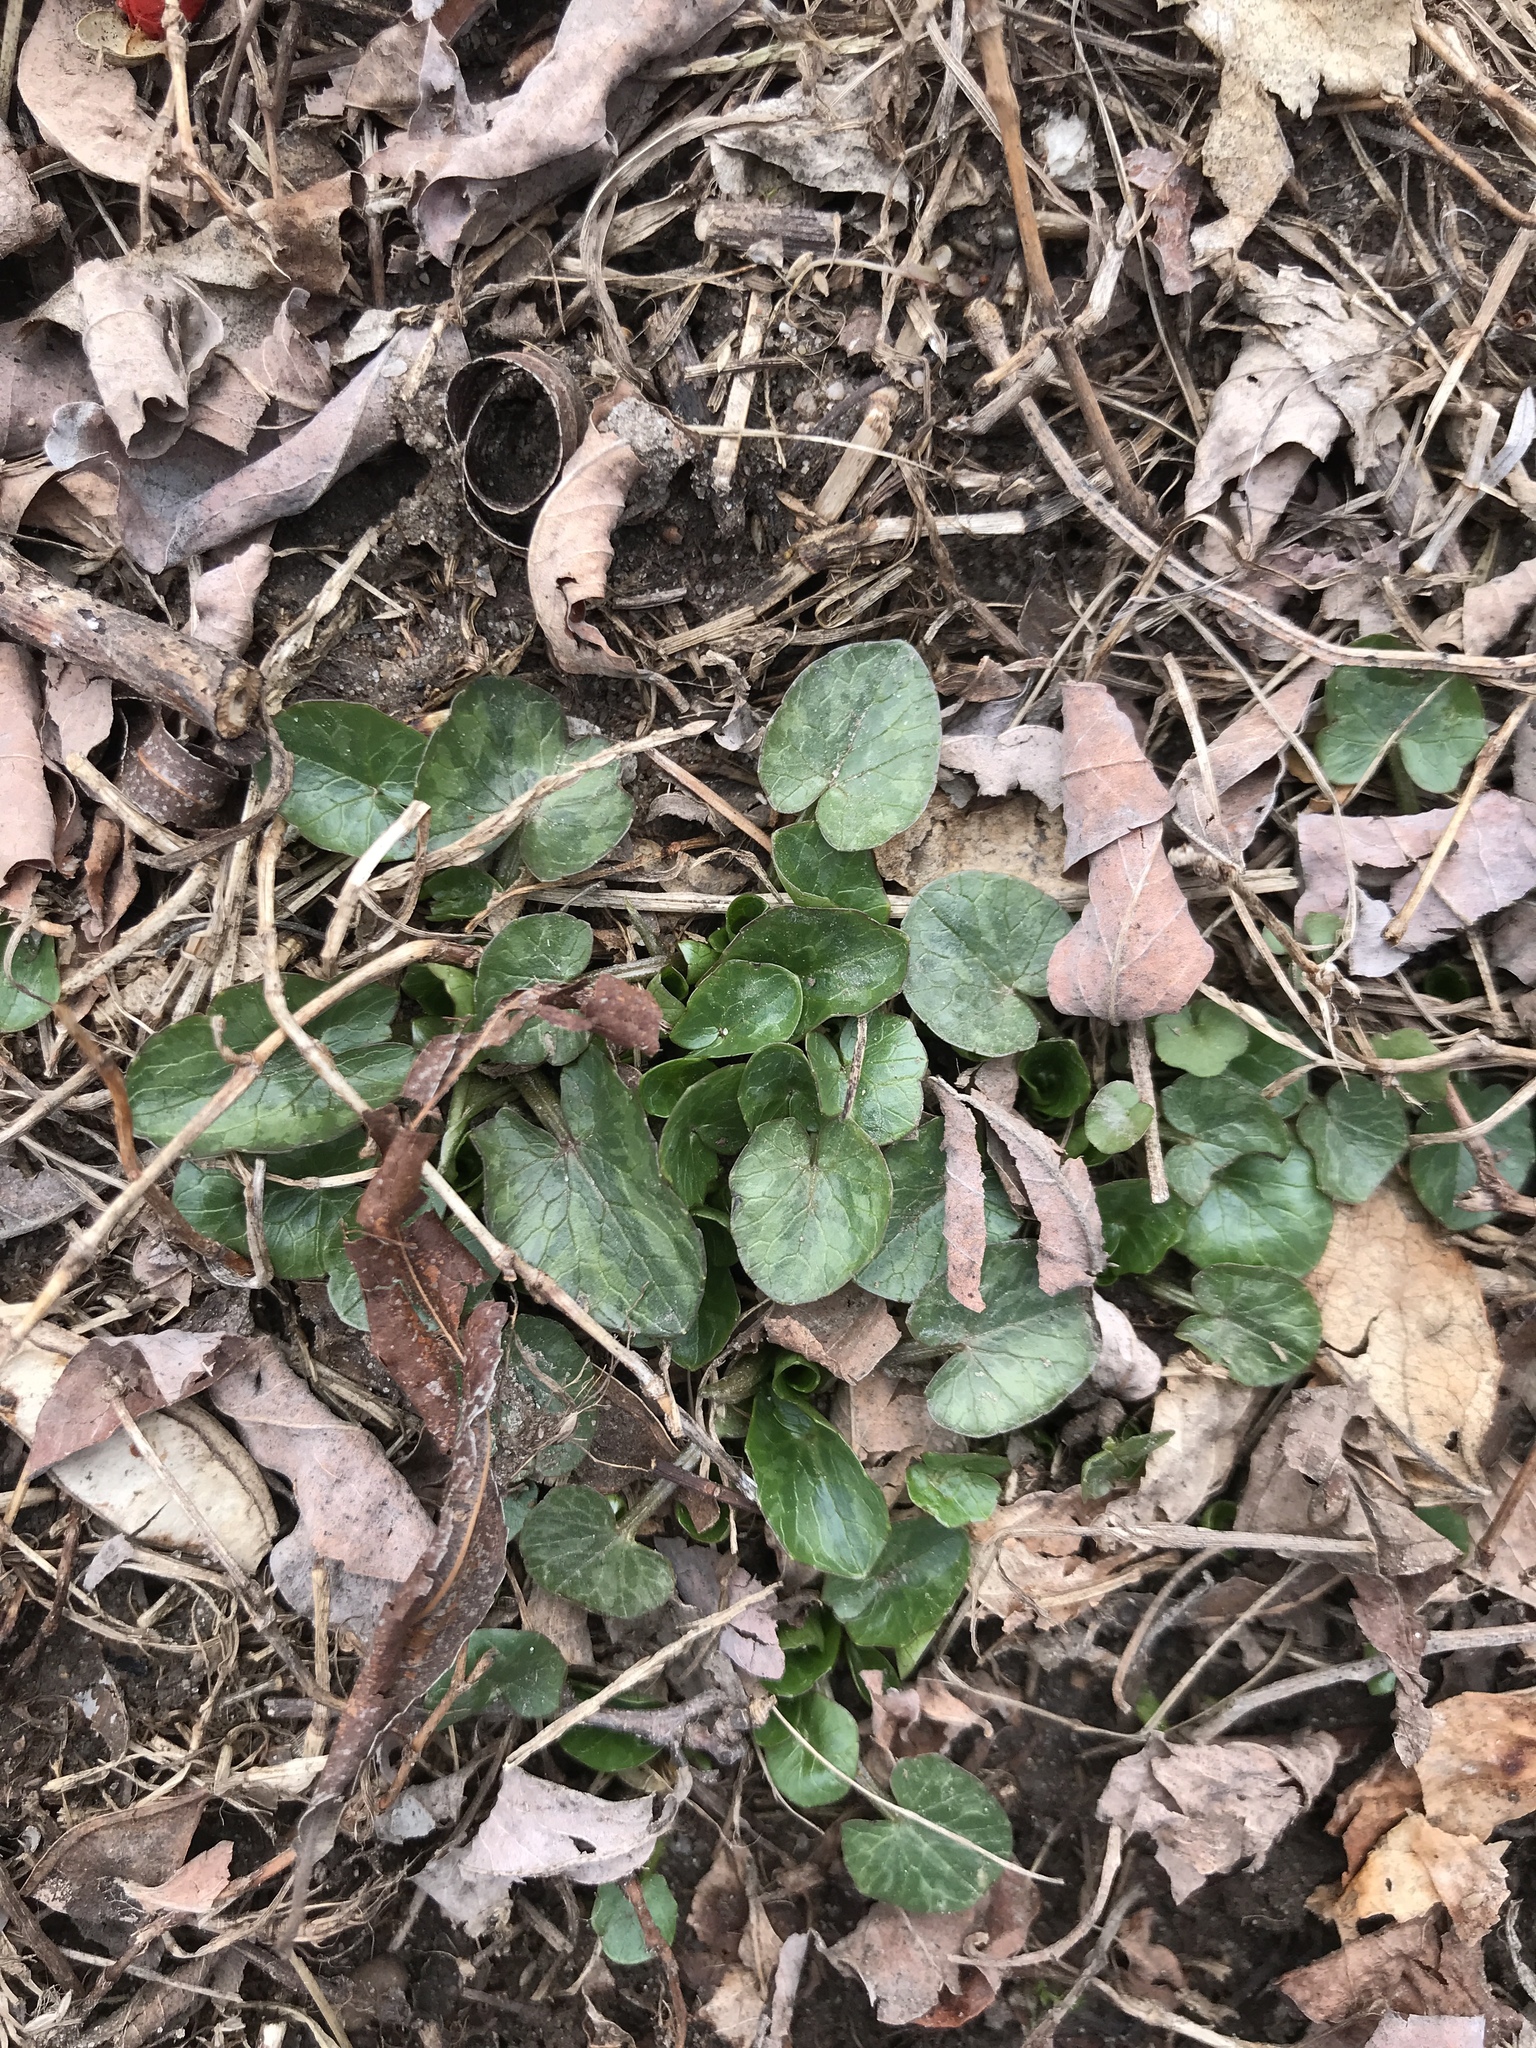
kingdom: Plantae
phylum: Tracheophyta
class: Magnoliopsida
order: Ranunculales
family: Ranunculaceae
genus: Ficaria
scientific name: Ficaria verna
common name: Lesser celandine
